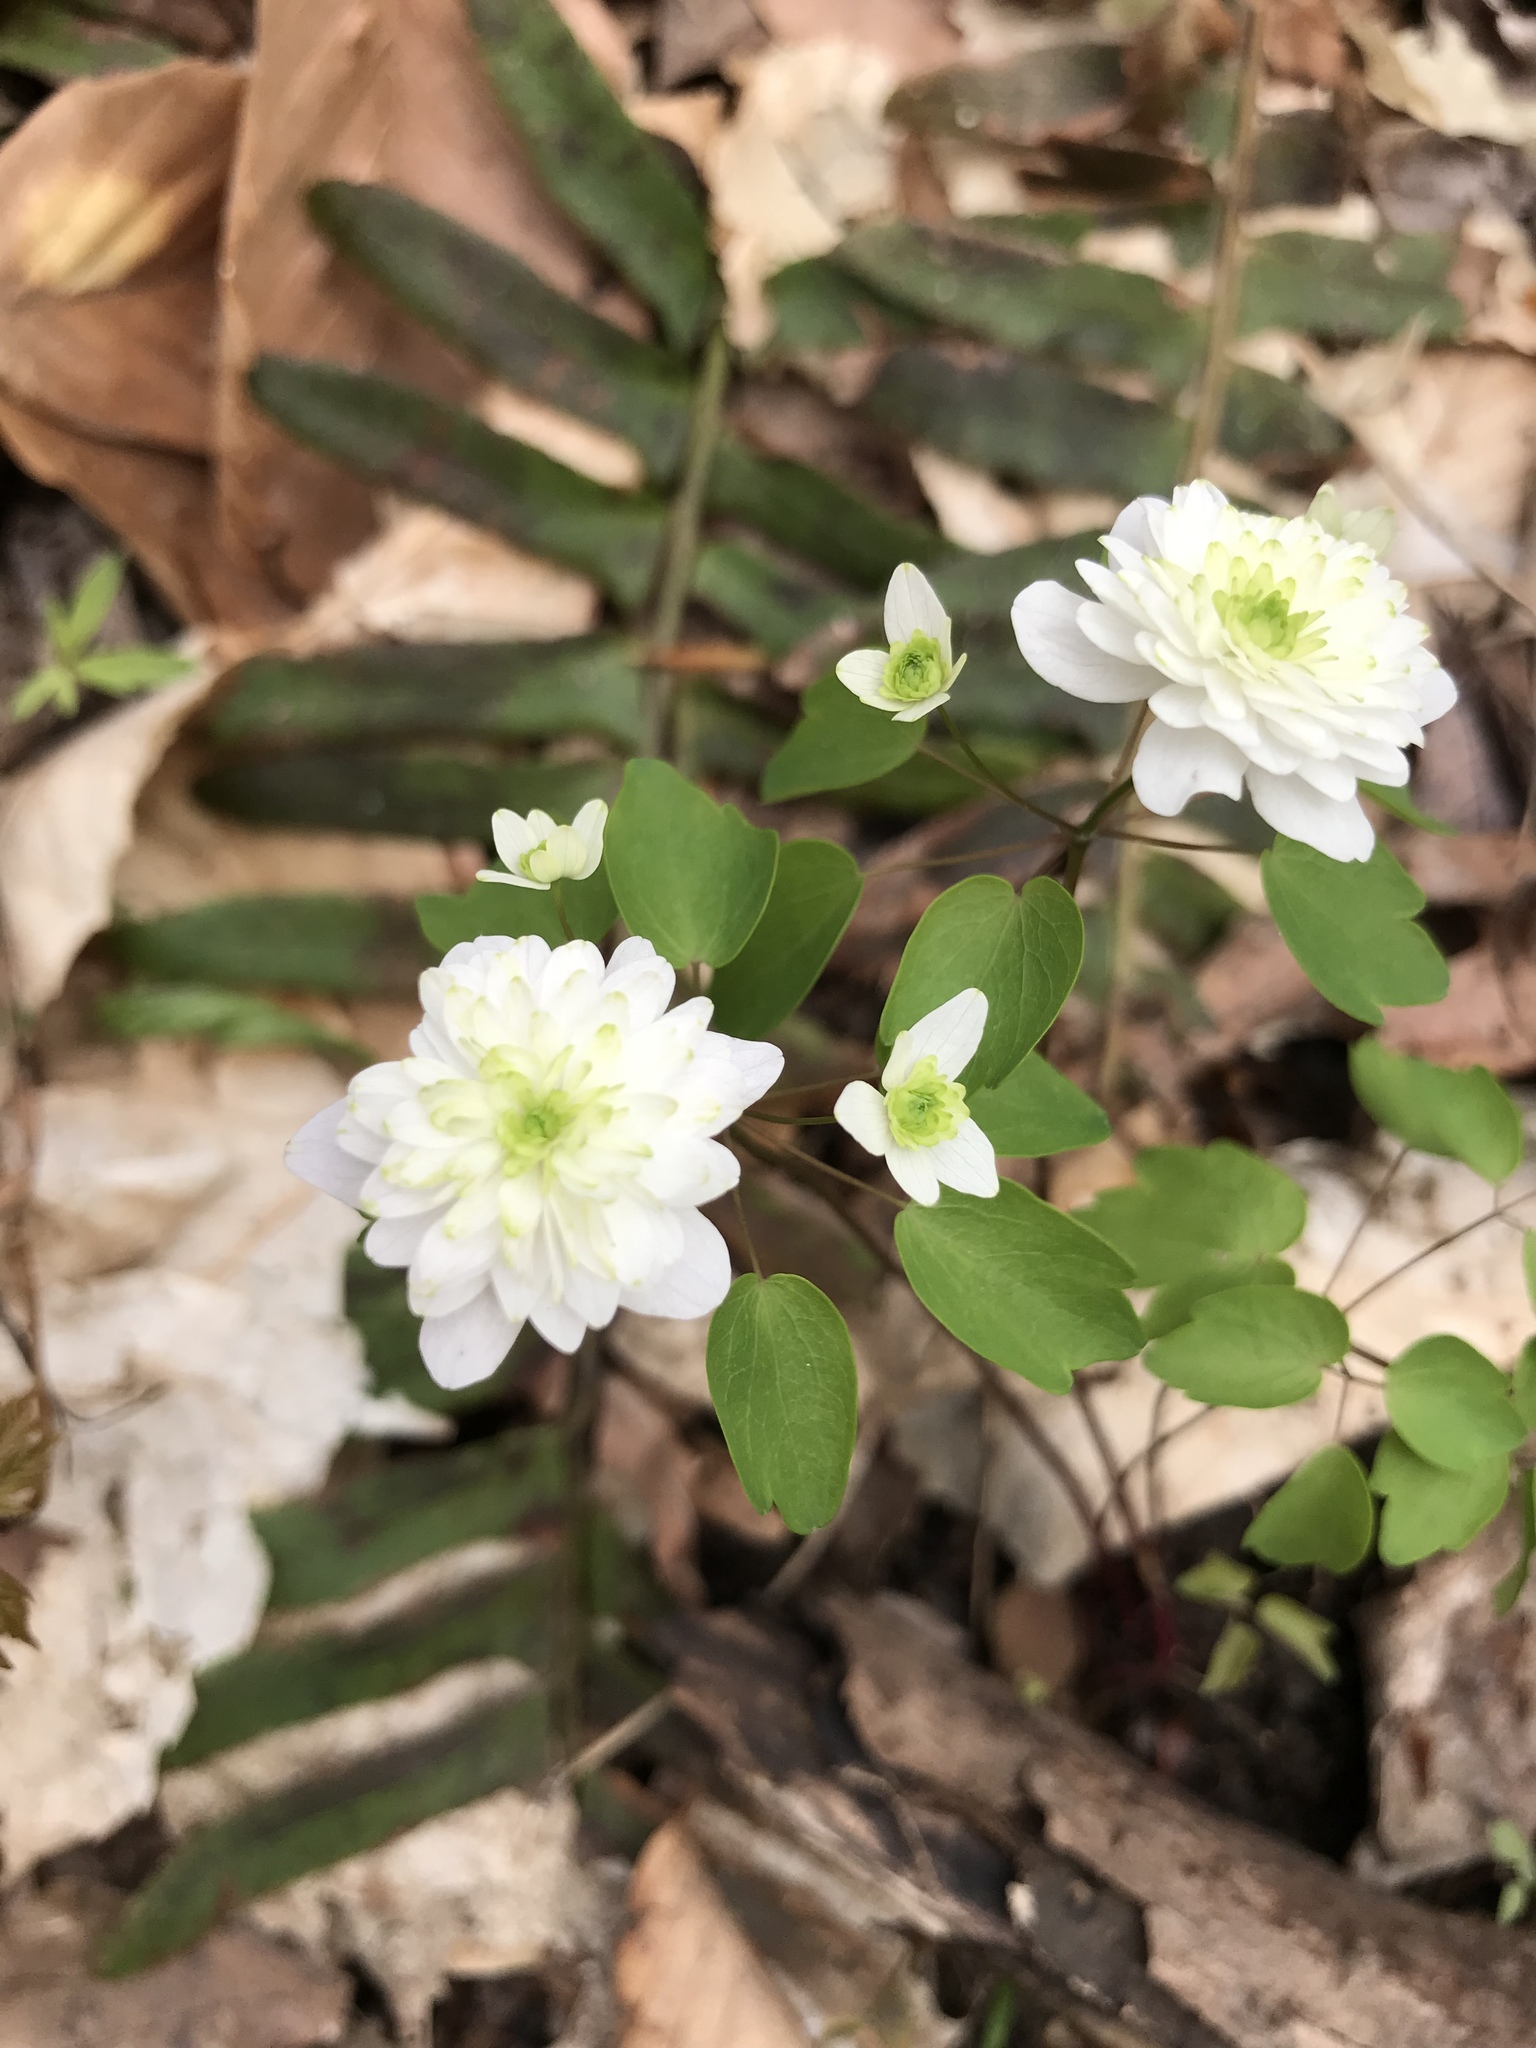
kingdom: Plantae
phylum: Tracheophyta
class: Magnoliopsida
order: Ranunculales
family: Ranunculaceae
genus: Thalictrum
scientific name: Thalictrum thalictroides
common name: Rue-anemone
